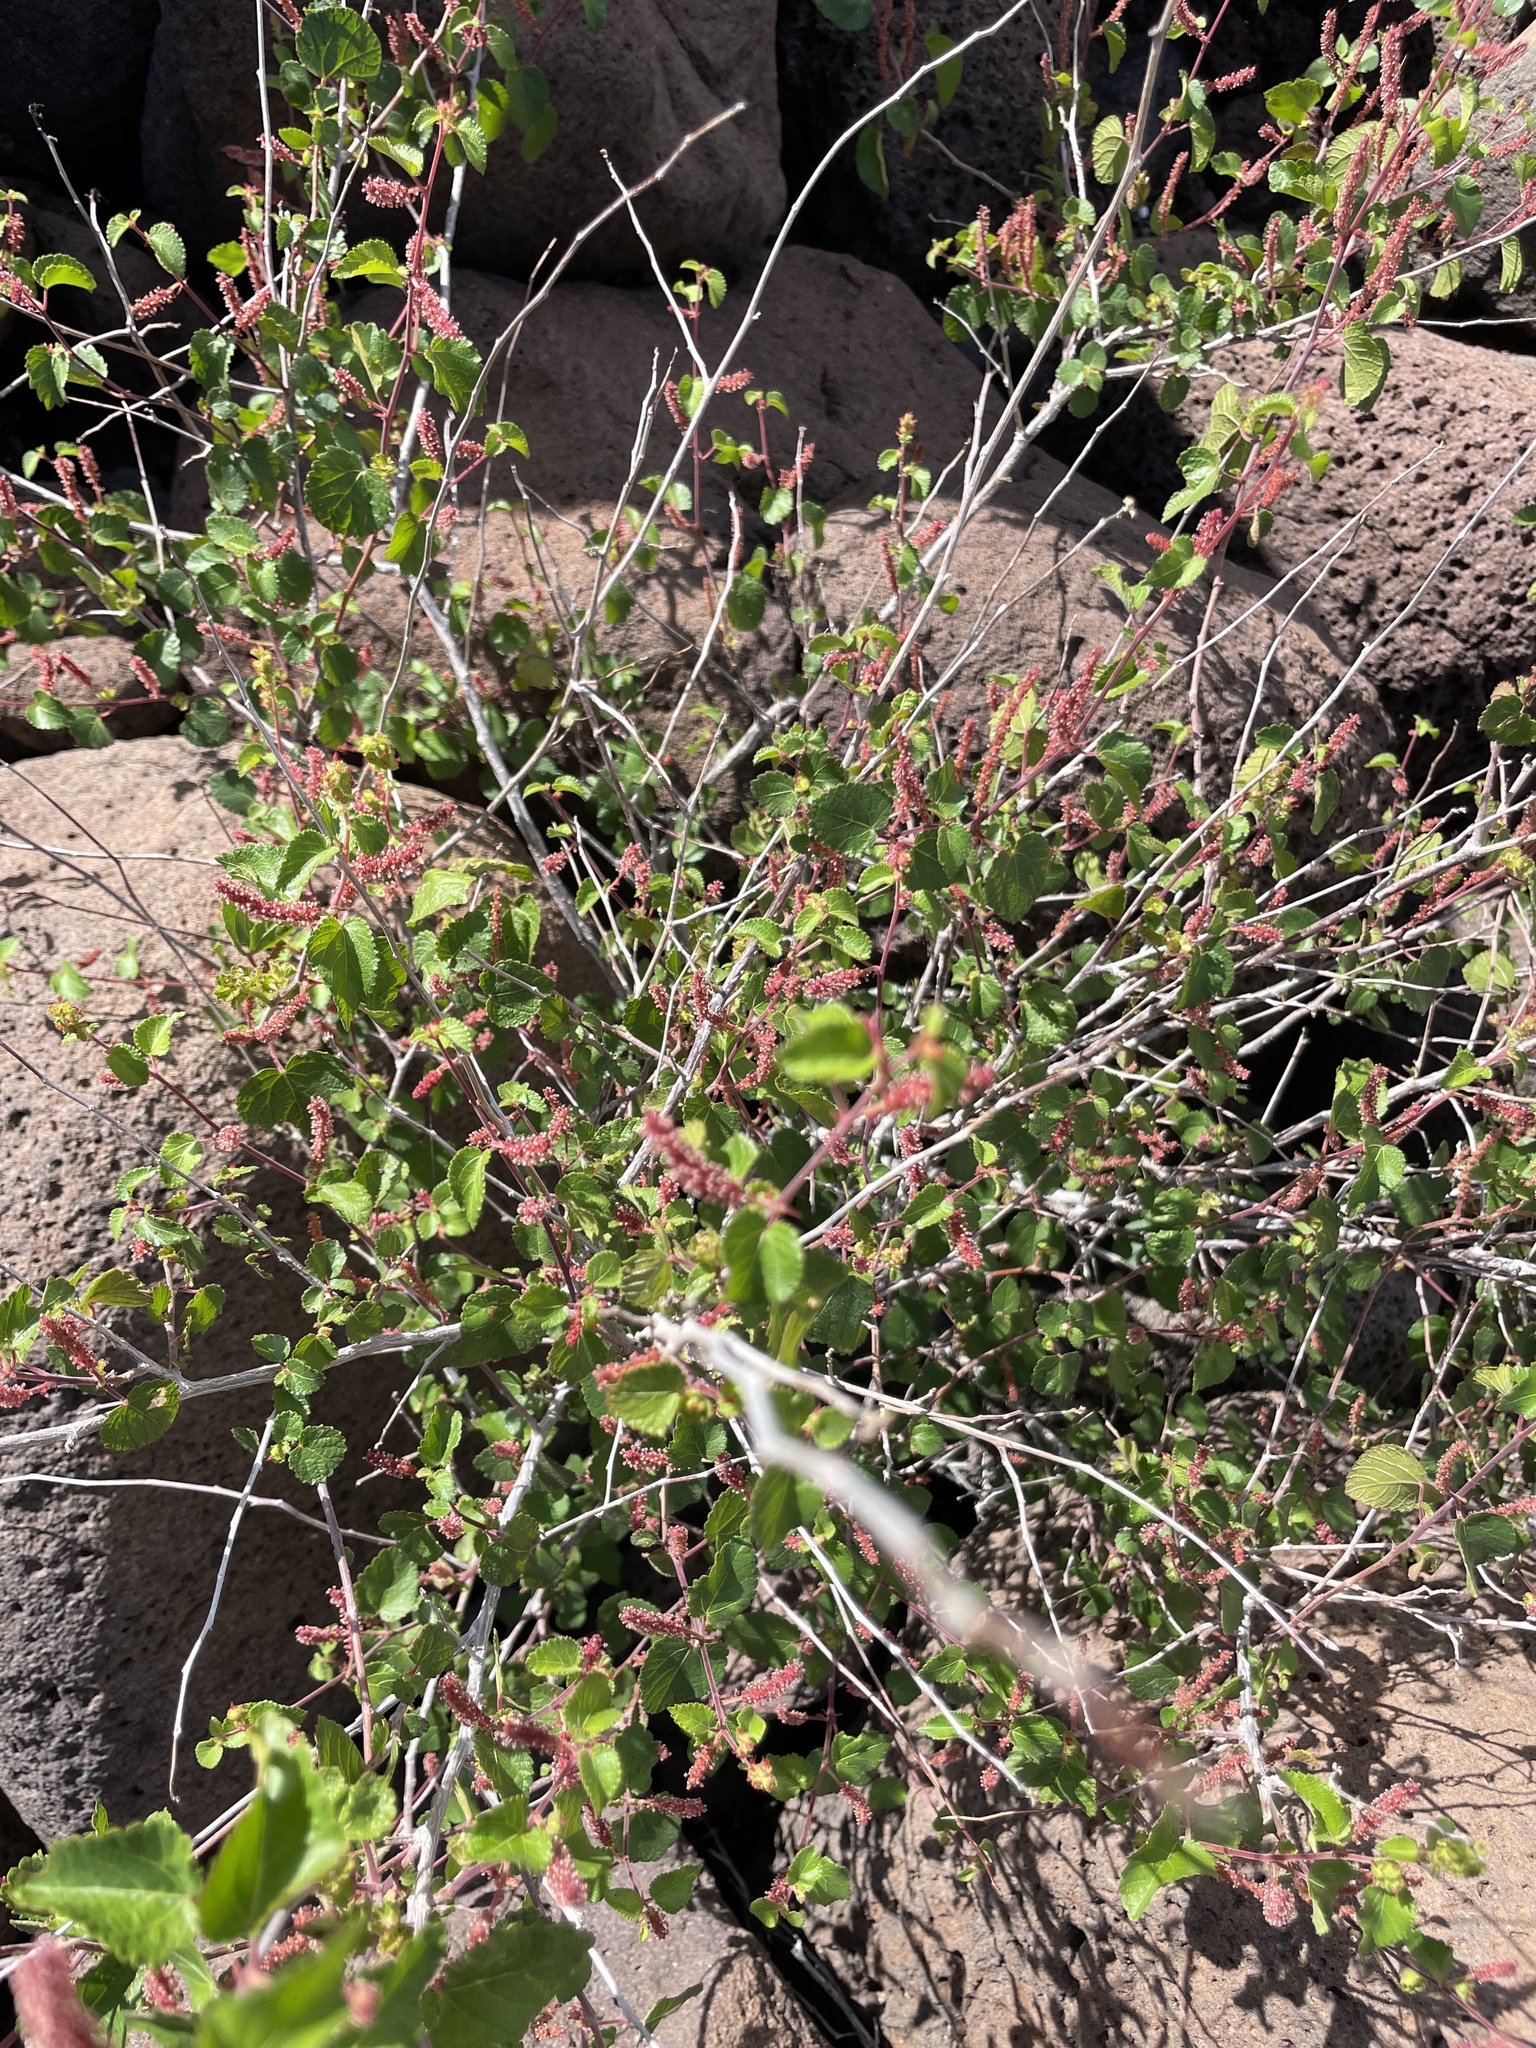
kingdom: Plantae
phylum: Tracheophyta
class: Magnoliopsida
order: Malpighiales
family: Euphorbiaceae
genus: Acalypha
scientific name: Acalypha californica
